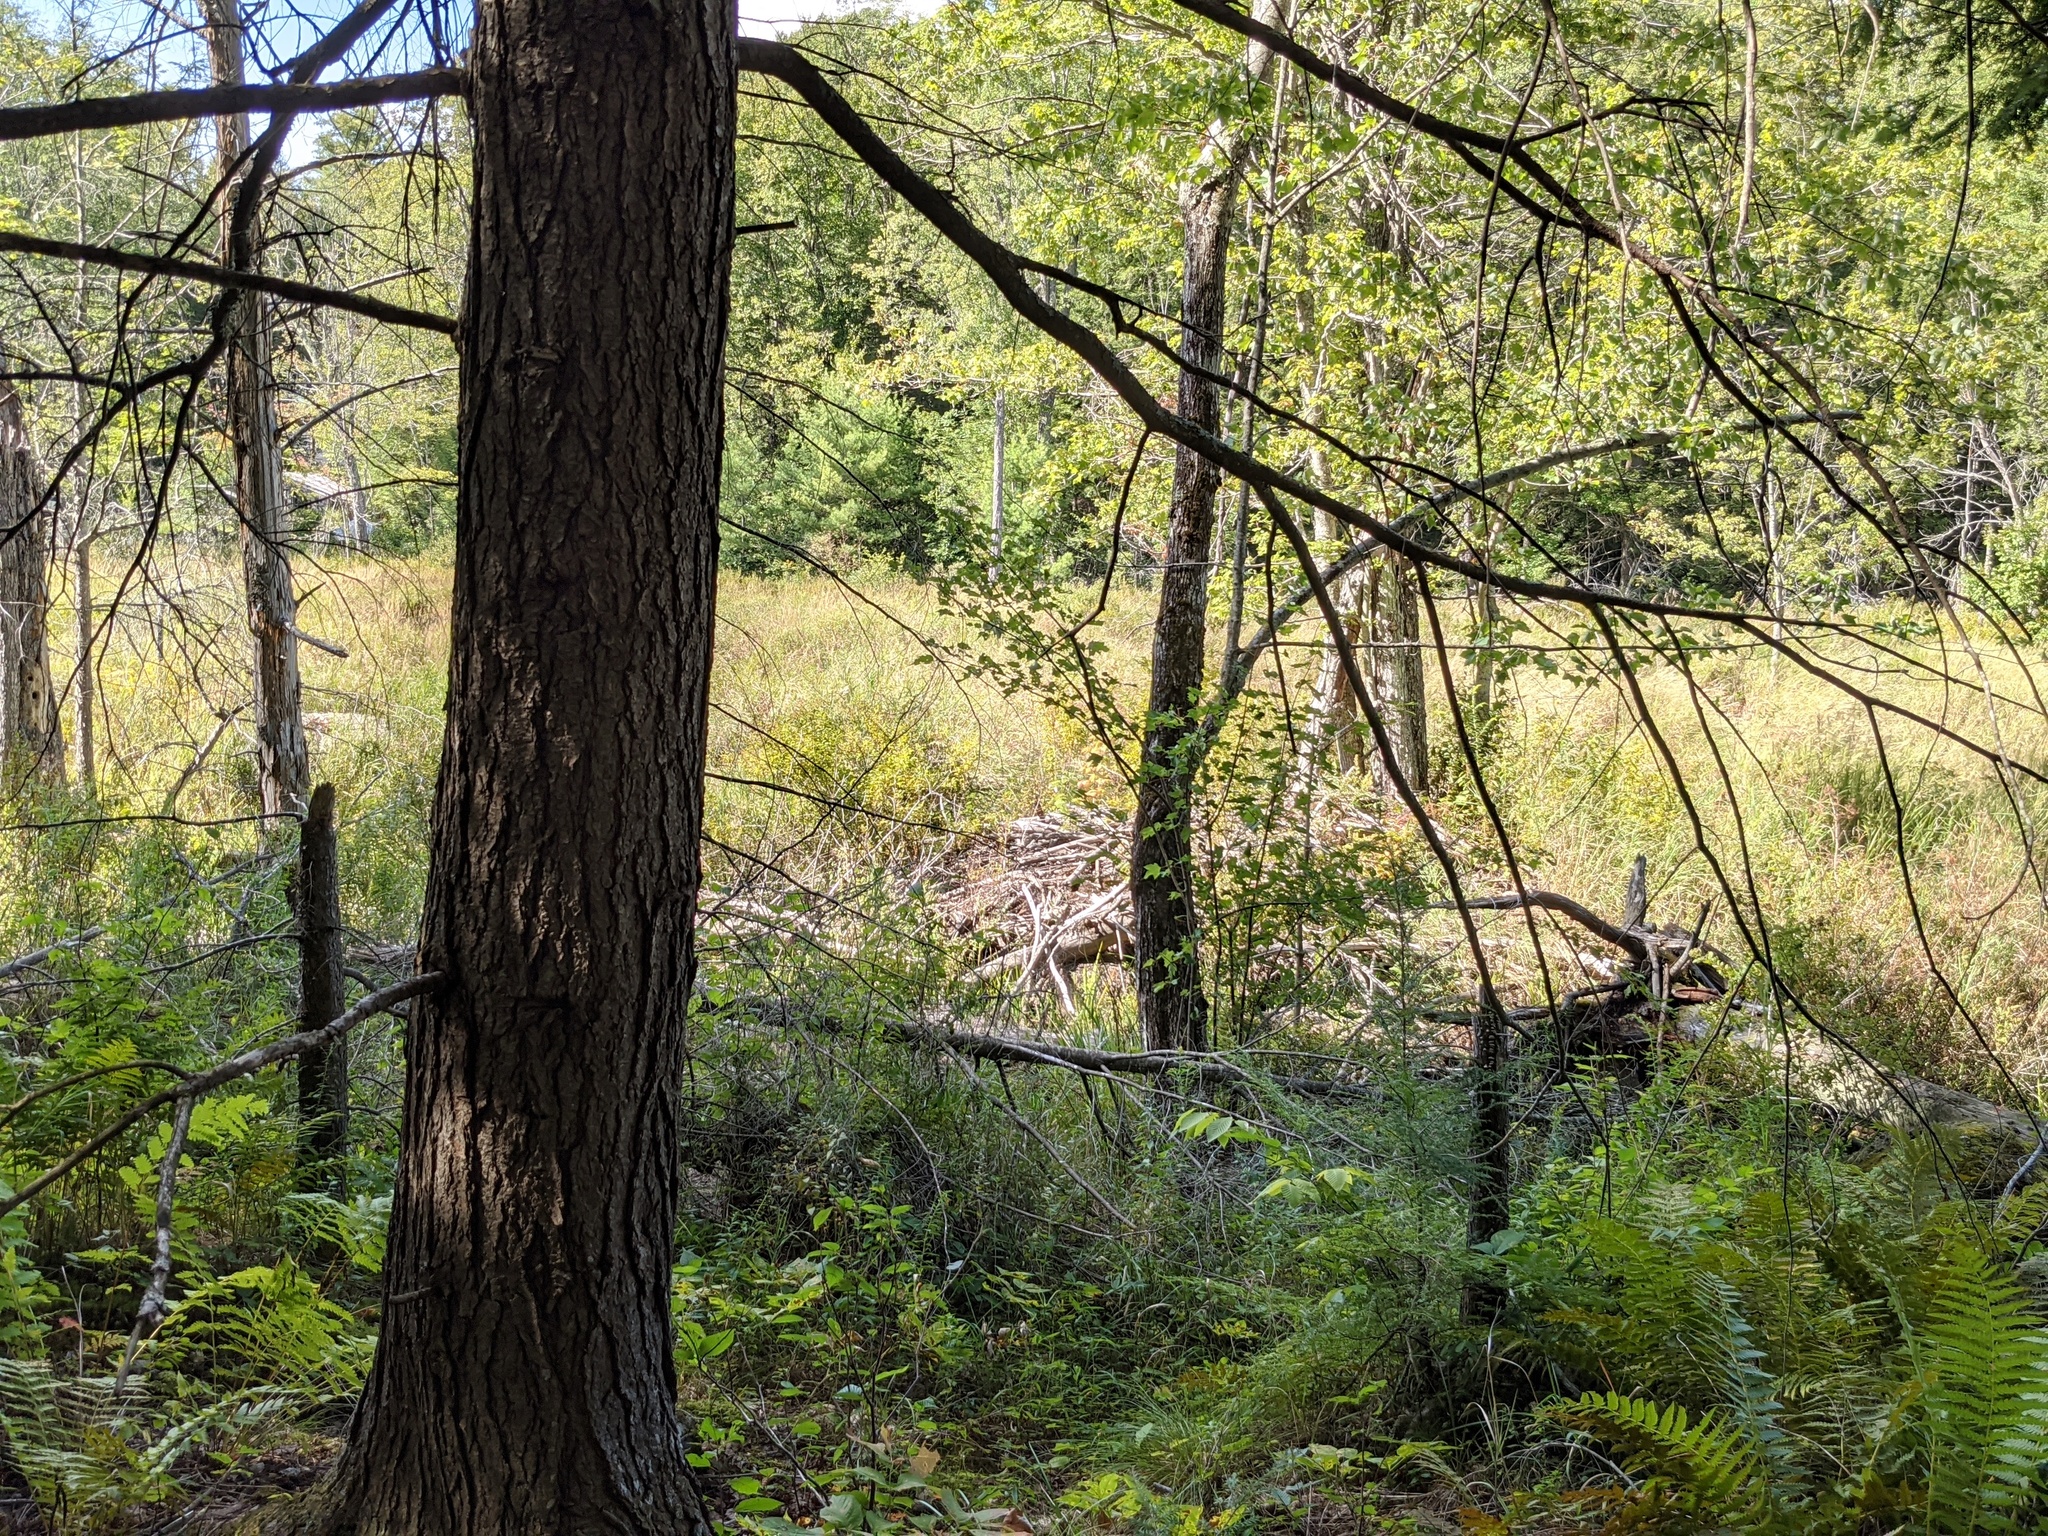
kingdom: Animalia
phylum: Chordata
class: Mammalia
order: Rodentia
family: Castoridae
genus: Castor
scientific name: Castor canadensis
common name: American beaver
